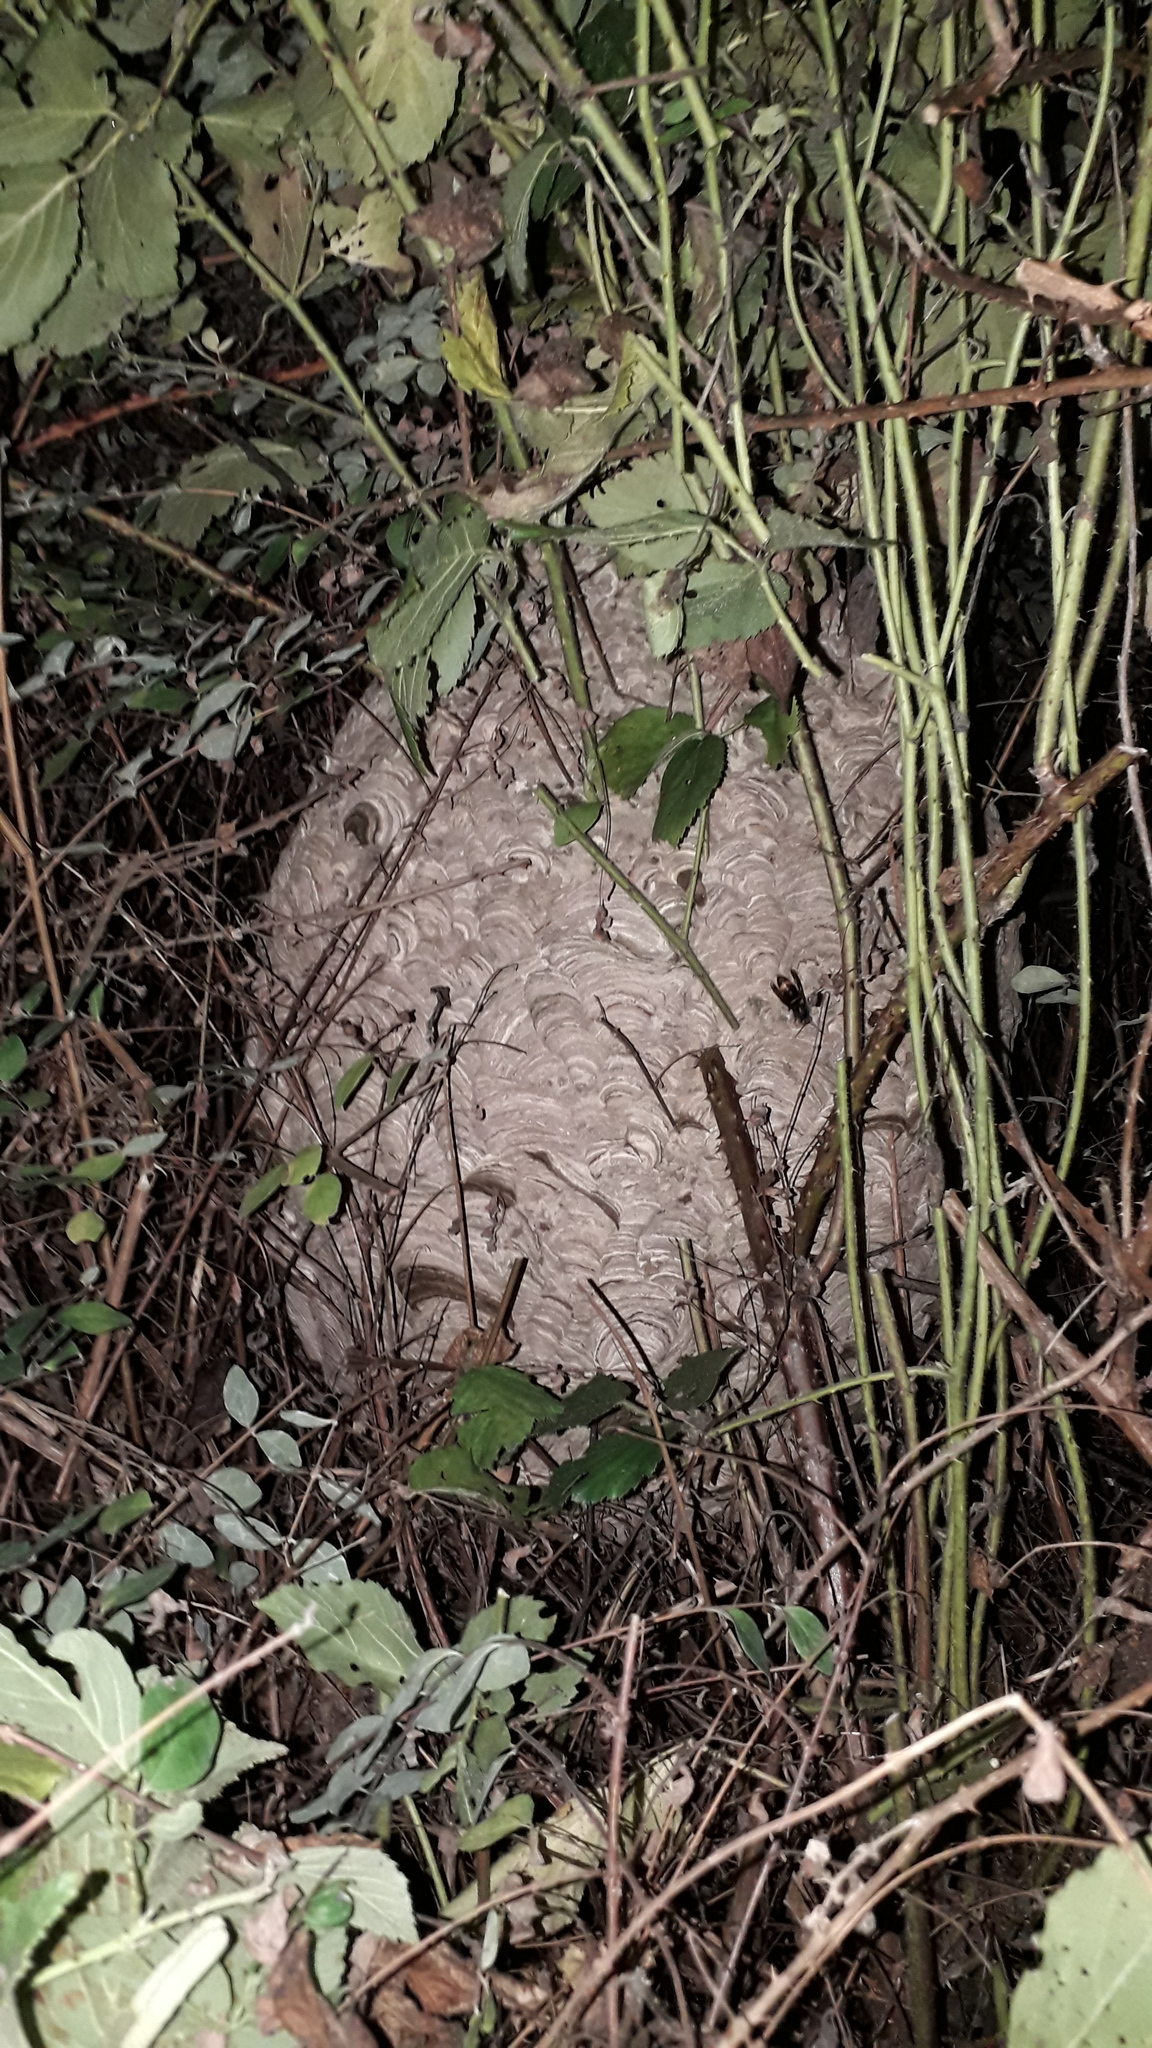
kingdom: Animalia
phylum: Arthropoda
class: Insecta
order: Hymenoptera
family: Vespidae
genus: Vespa
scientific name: Vespa velutina
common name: Asian hornet
